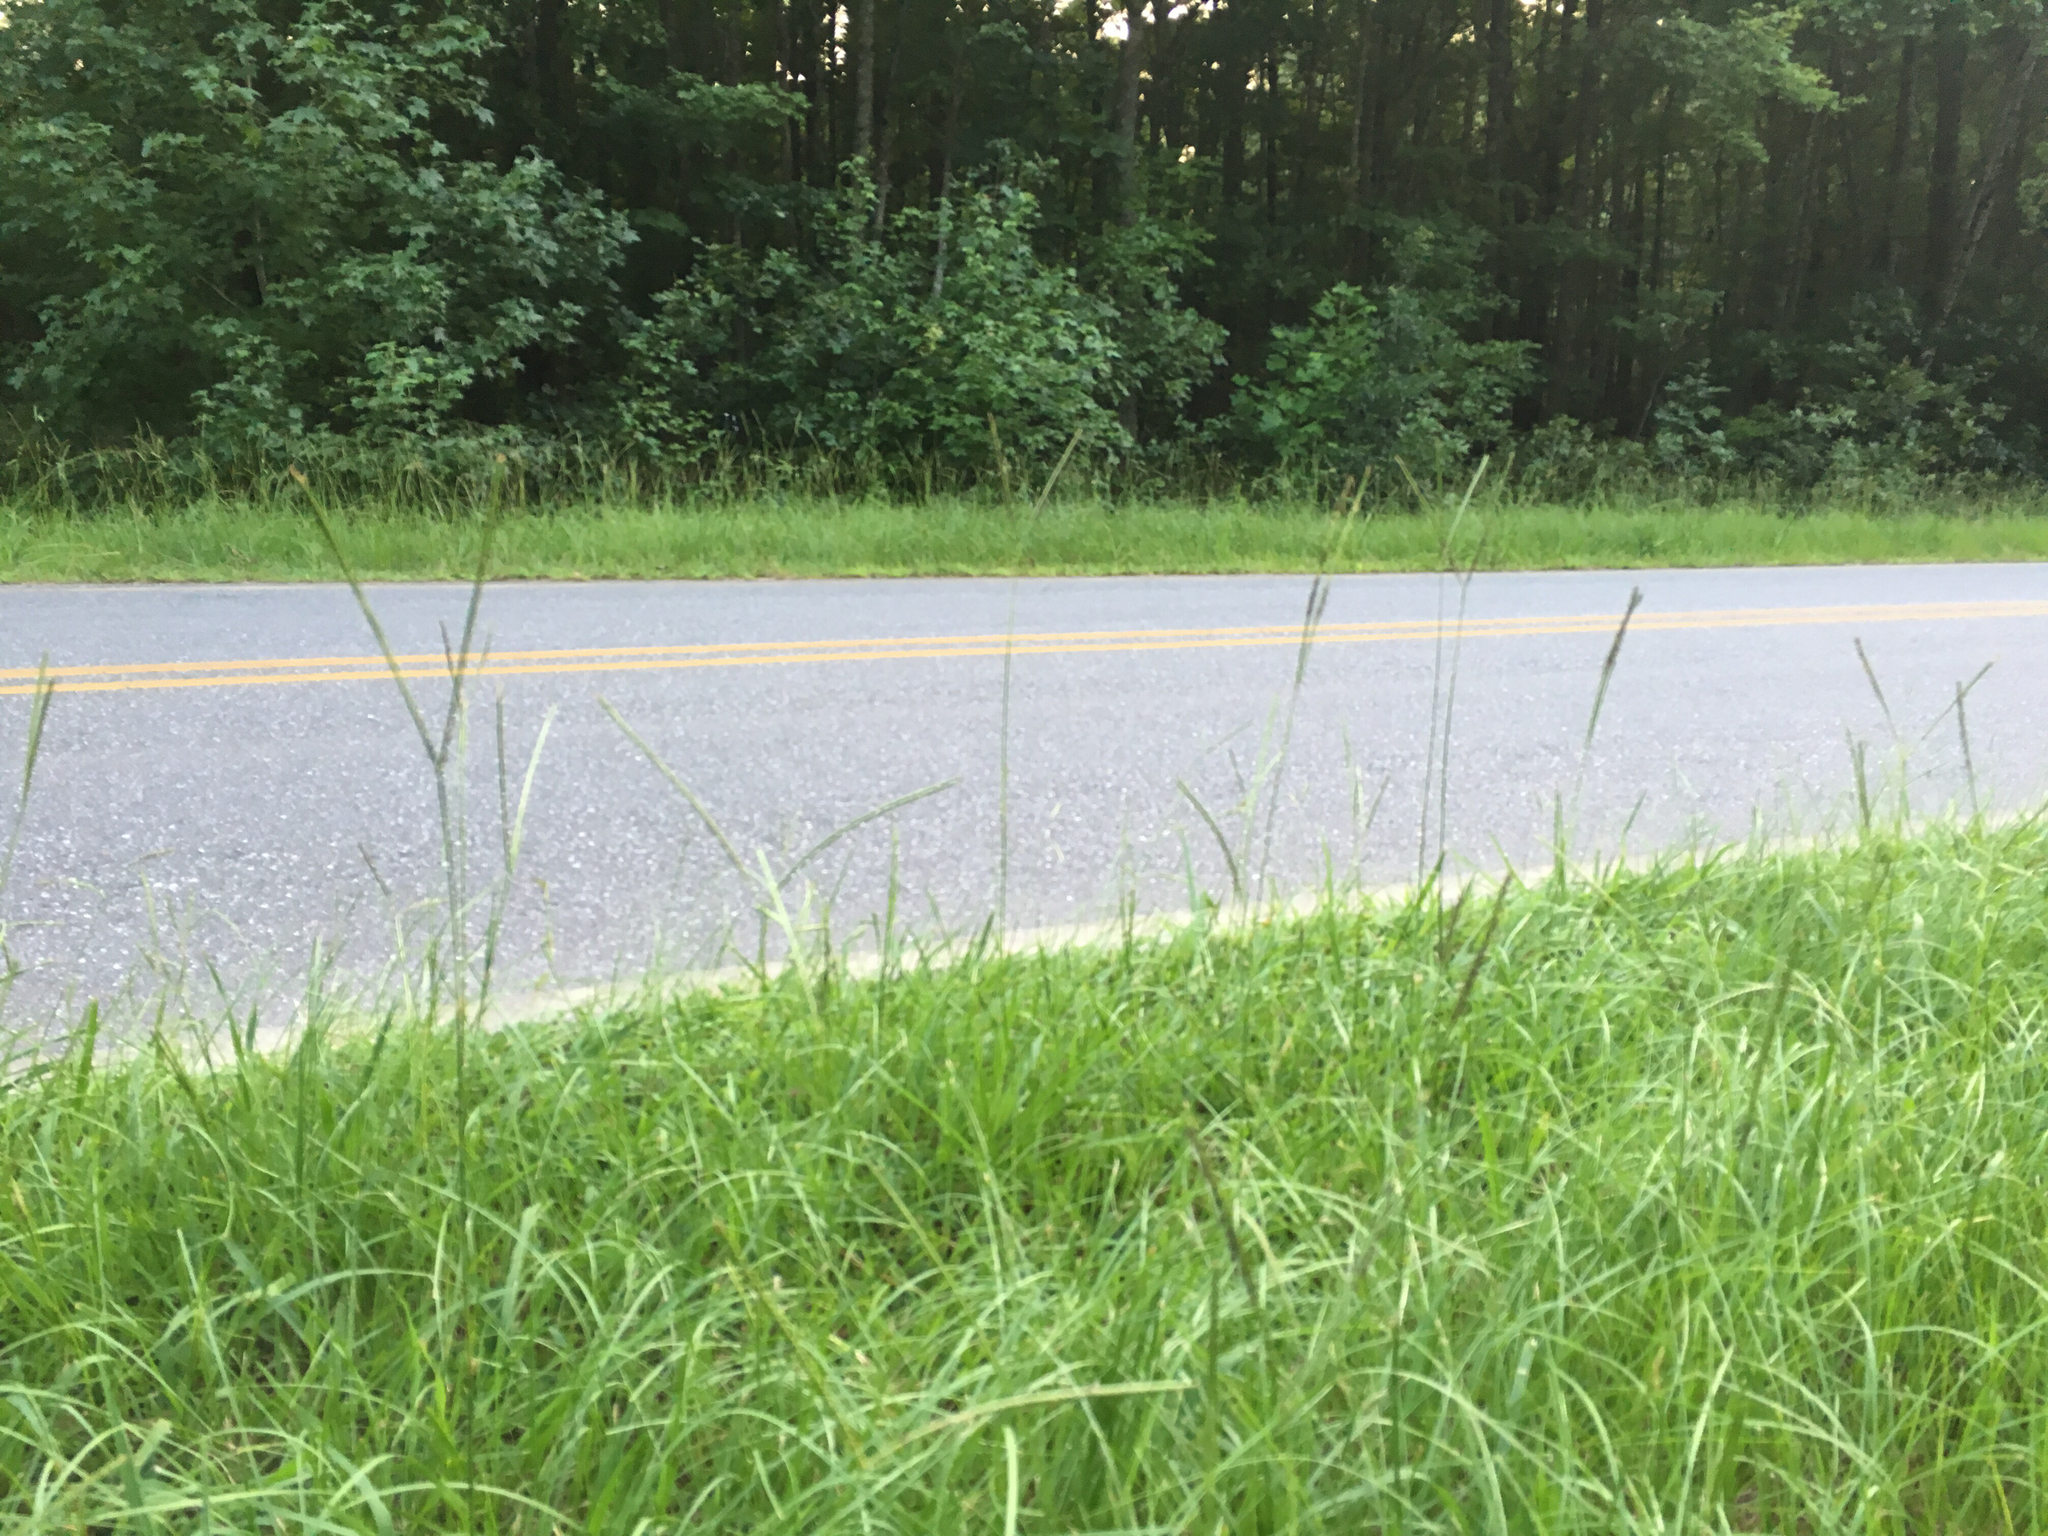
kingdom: Plantae
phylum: Tracheophyta
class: Liliopsida
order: Poales
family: Poaceae
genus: Paspalum
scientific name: Paspalum notatum
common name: Bahiagrass
